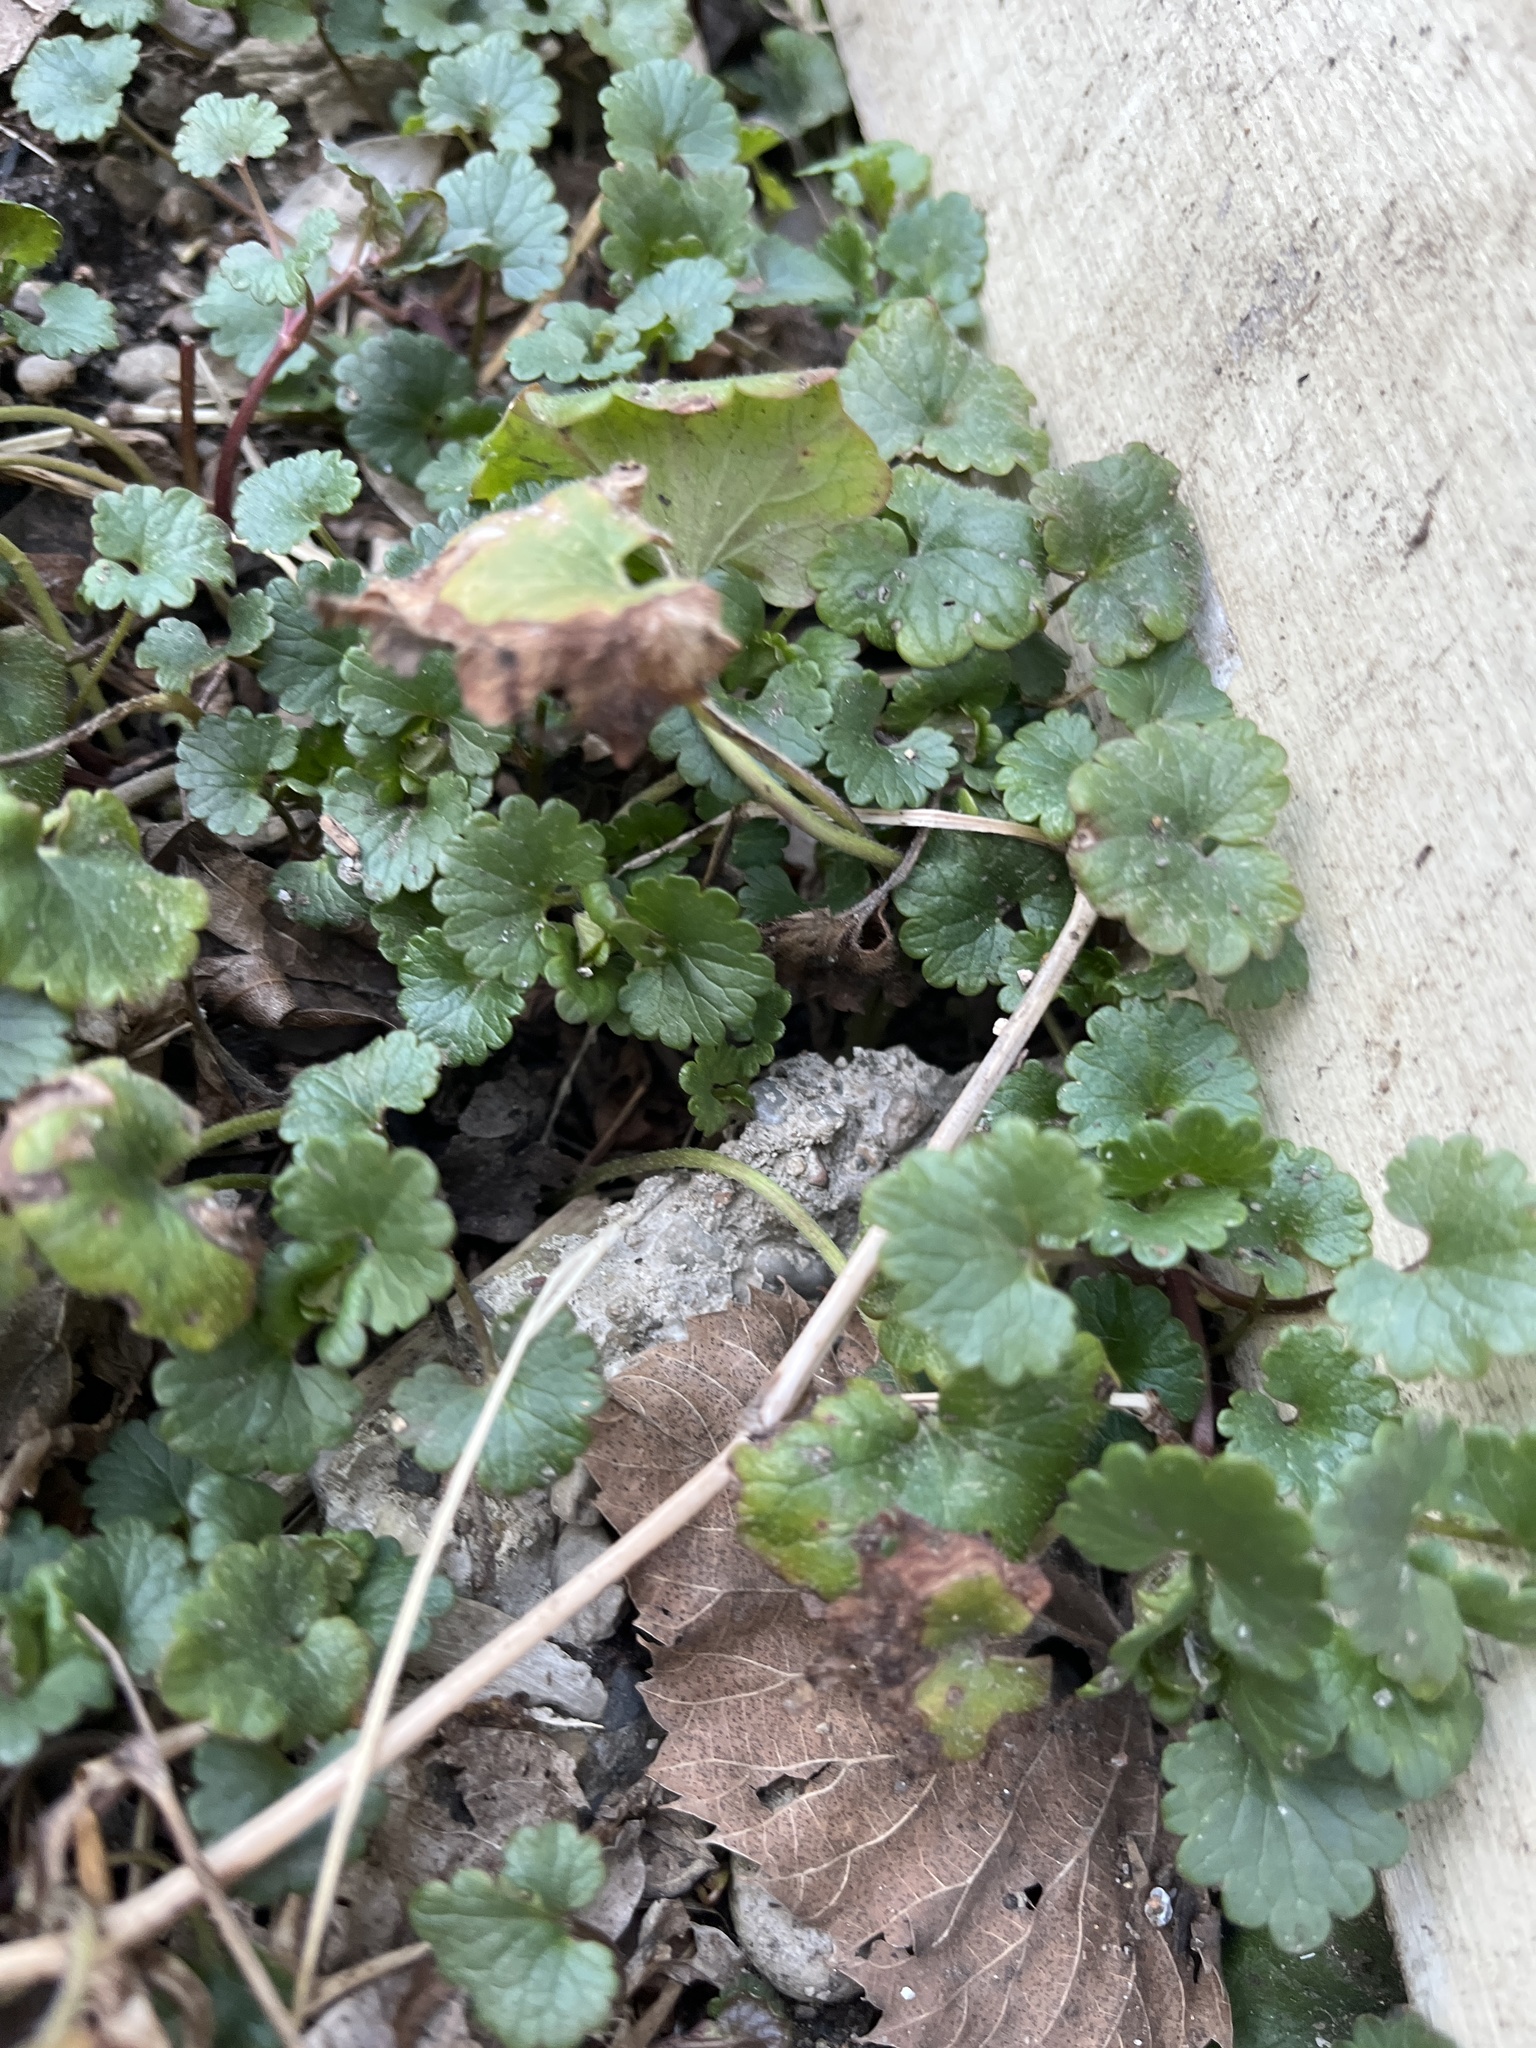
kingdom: Plantae
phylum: Tracheophyta
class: Magnoliopsida
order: Lamiales
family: Lamiaceae
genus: Glechoma
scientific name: Glechoma hederacea
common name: Ground ivy
